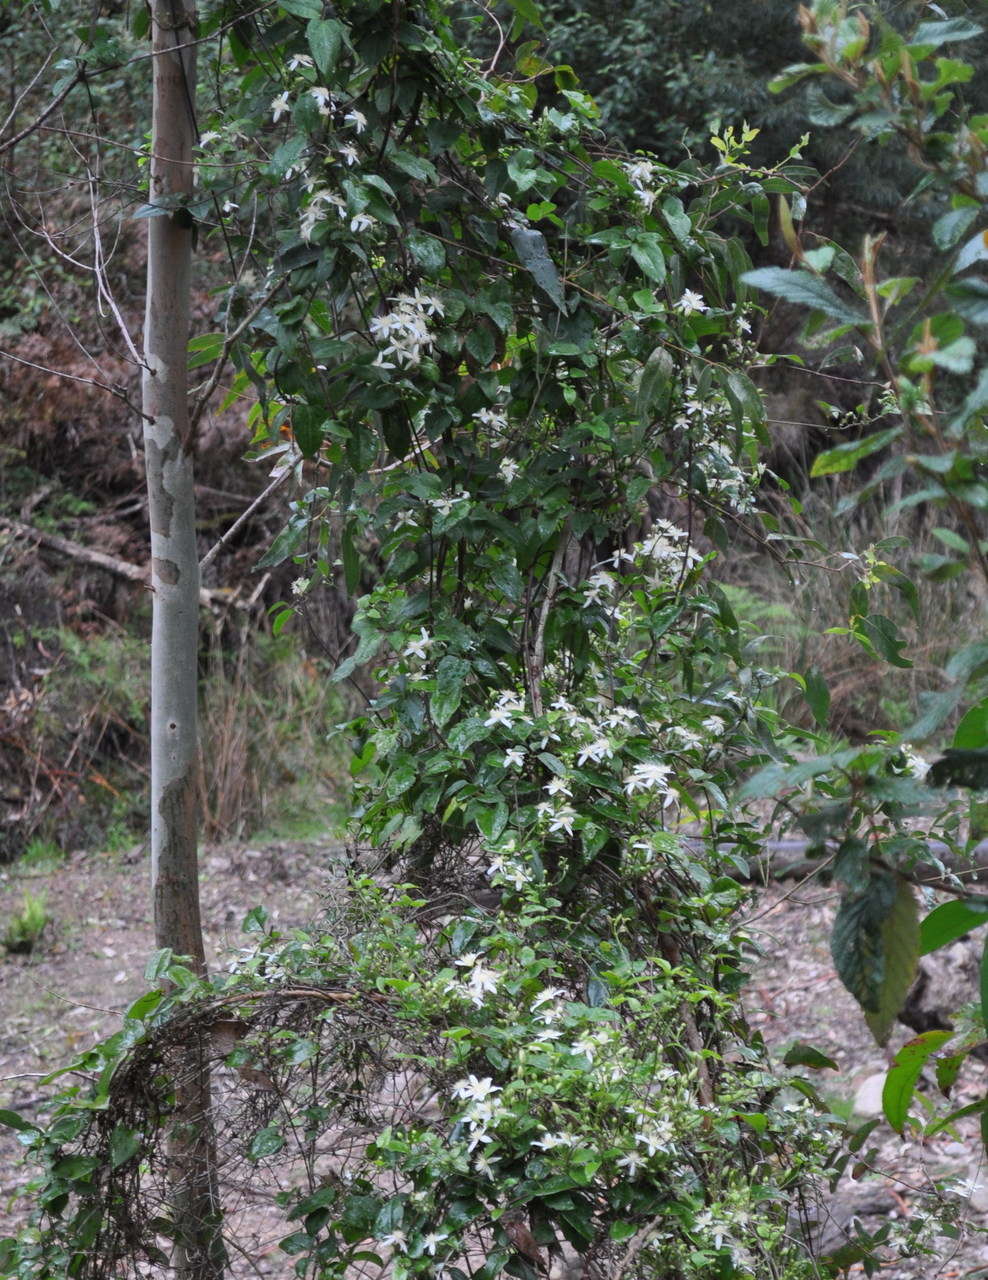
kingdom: Plantae
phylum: Tracheophyta
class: Magnoliopsida
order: Ranunculales
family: Ranunculaceae
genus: Clematis
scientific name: Clematis aristata
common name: Mountain clematis
